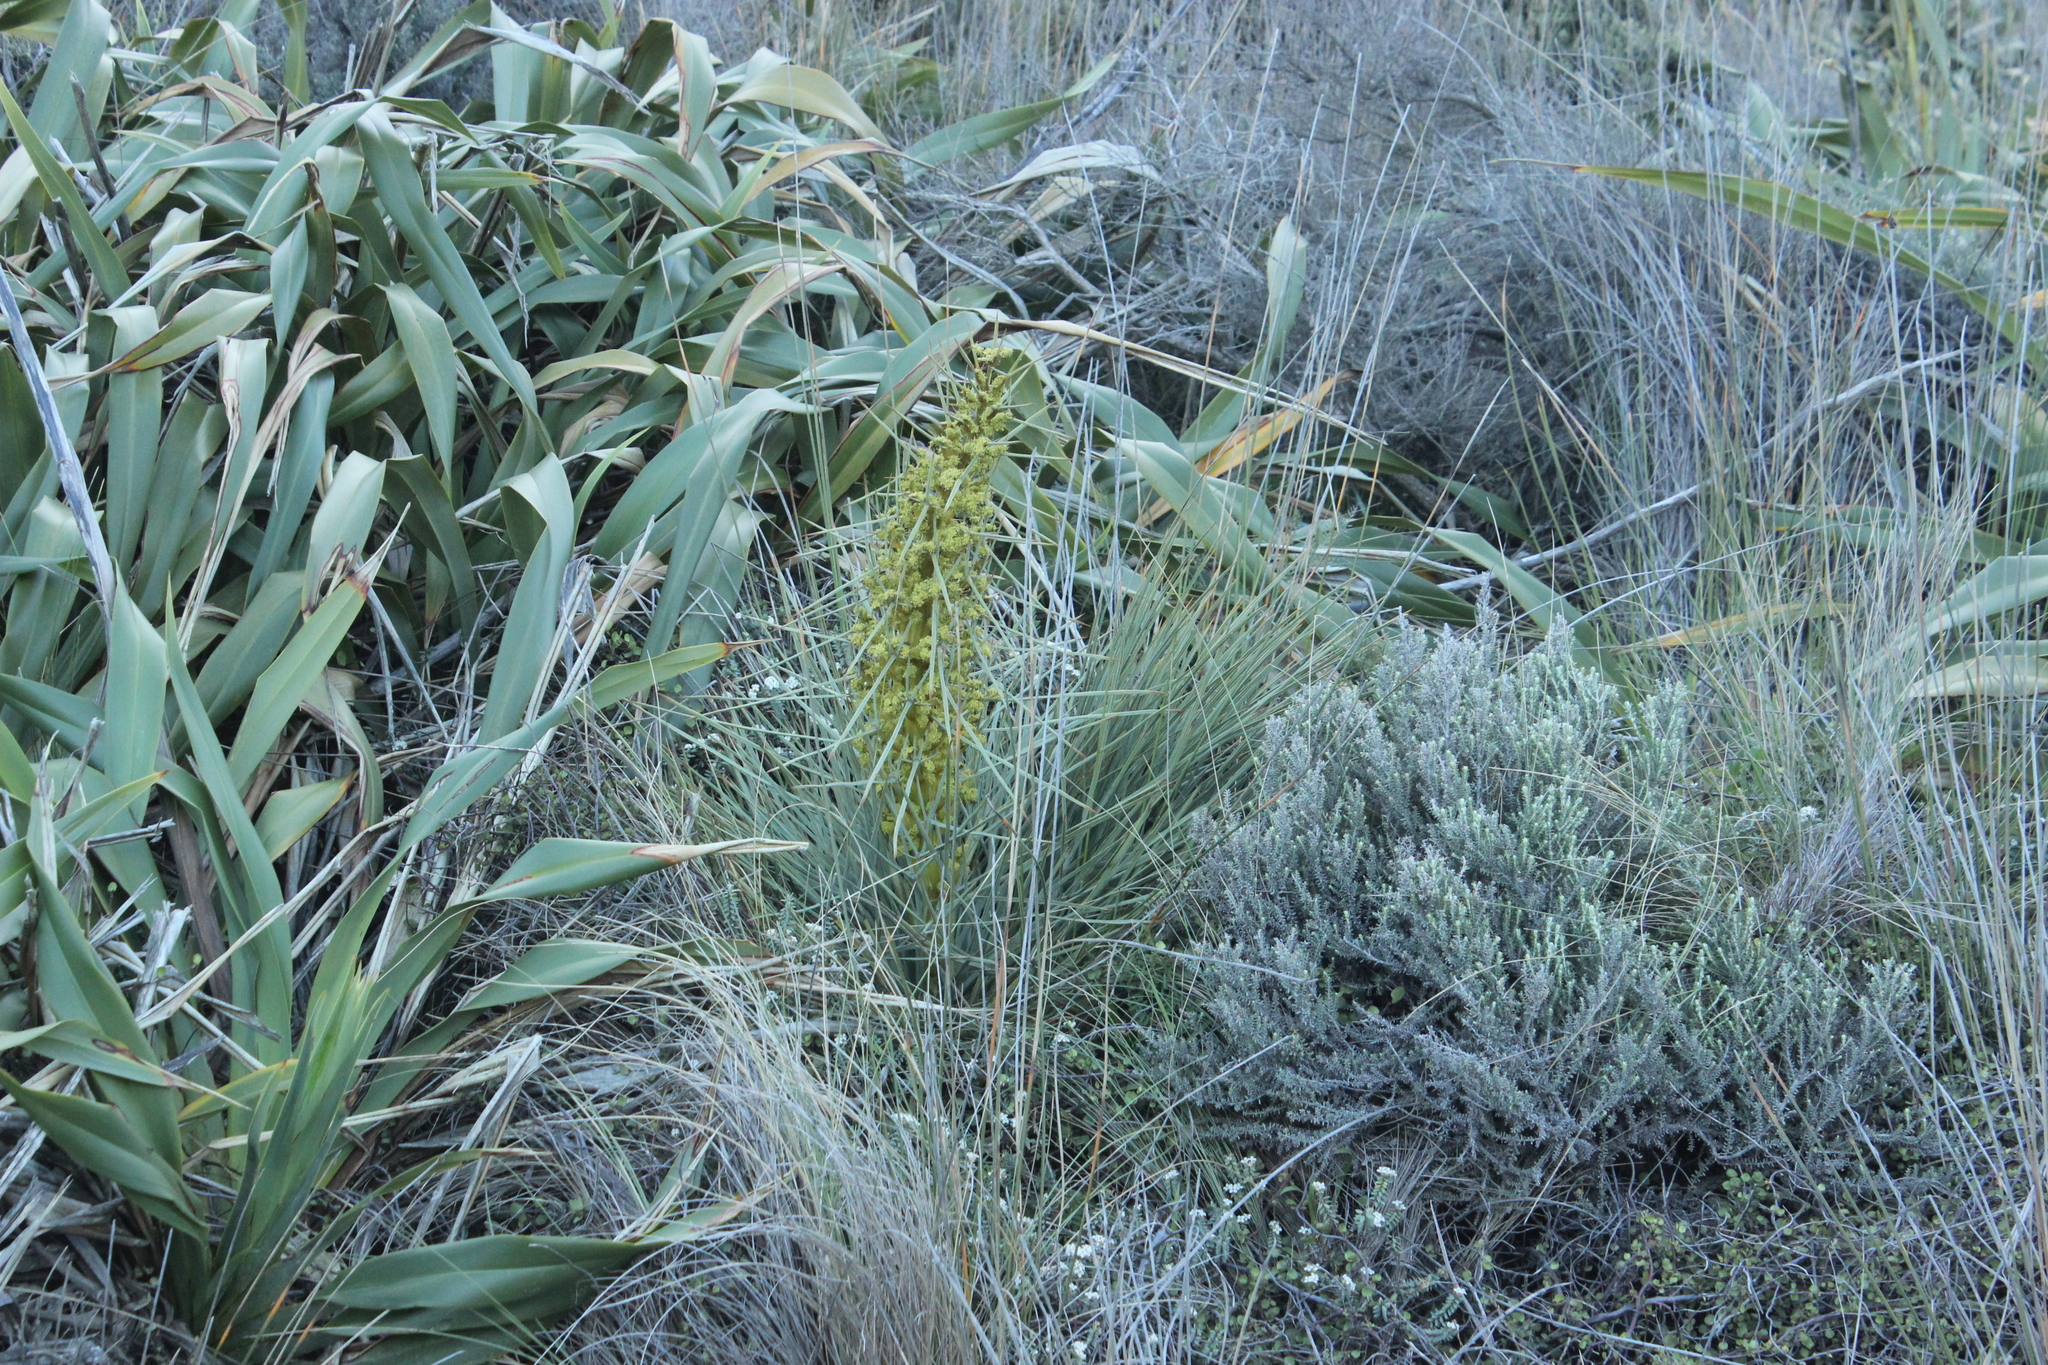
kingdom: Plantae
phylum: Tracheophyta
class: Magnoliopsida
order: Apiales
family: Apiaceae
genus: Aciphylla
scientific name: Aciphylla squarrosa
